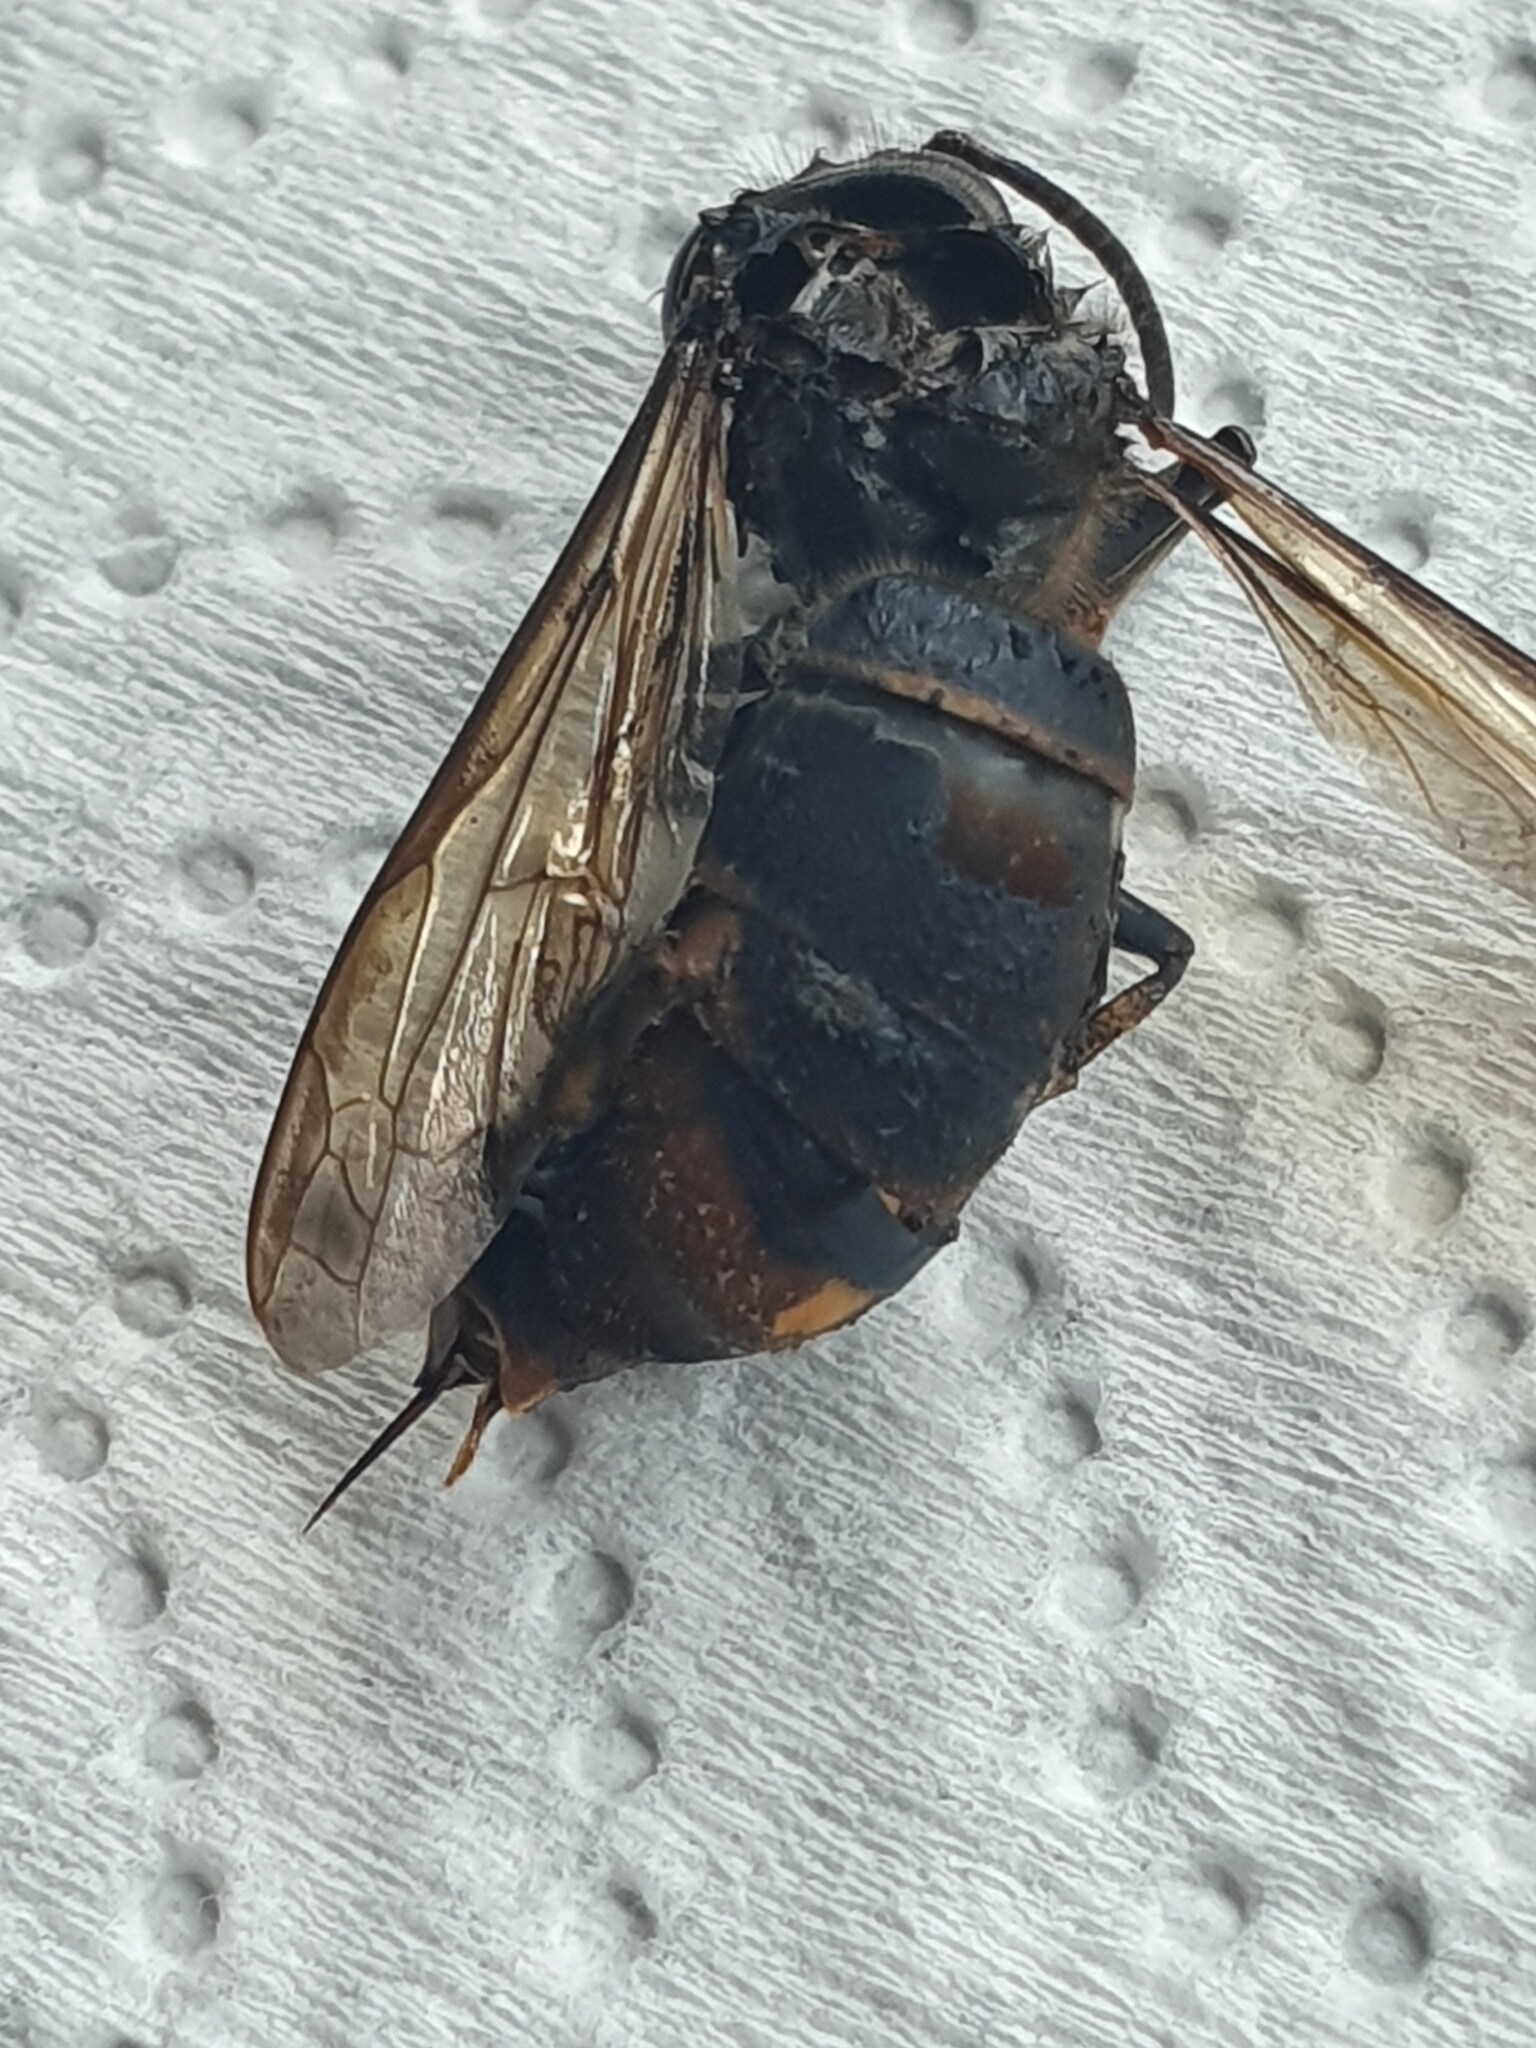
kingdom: Animalia
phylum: Arthropoda
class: Insecta
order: Hymenoptera
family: Vespidae
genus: Vespa
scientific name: Vespa velutina
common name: Asian hornet
